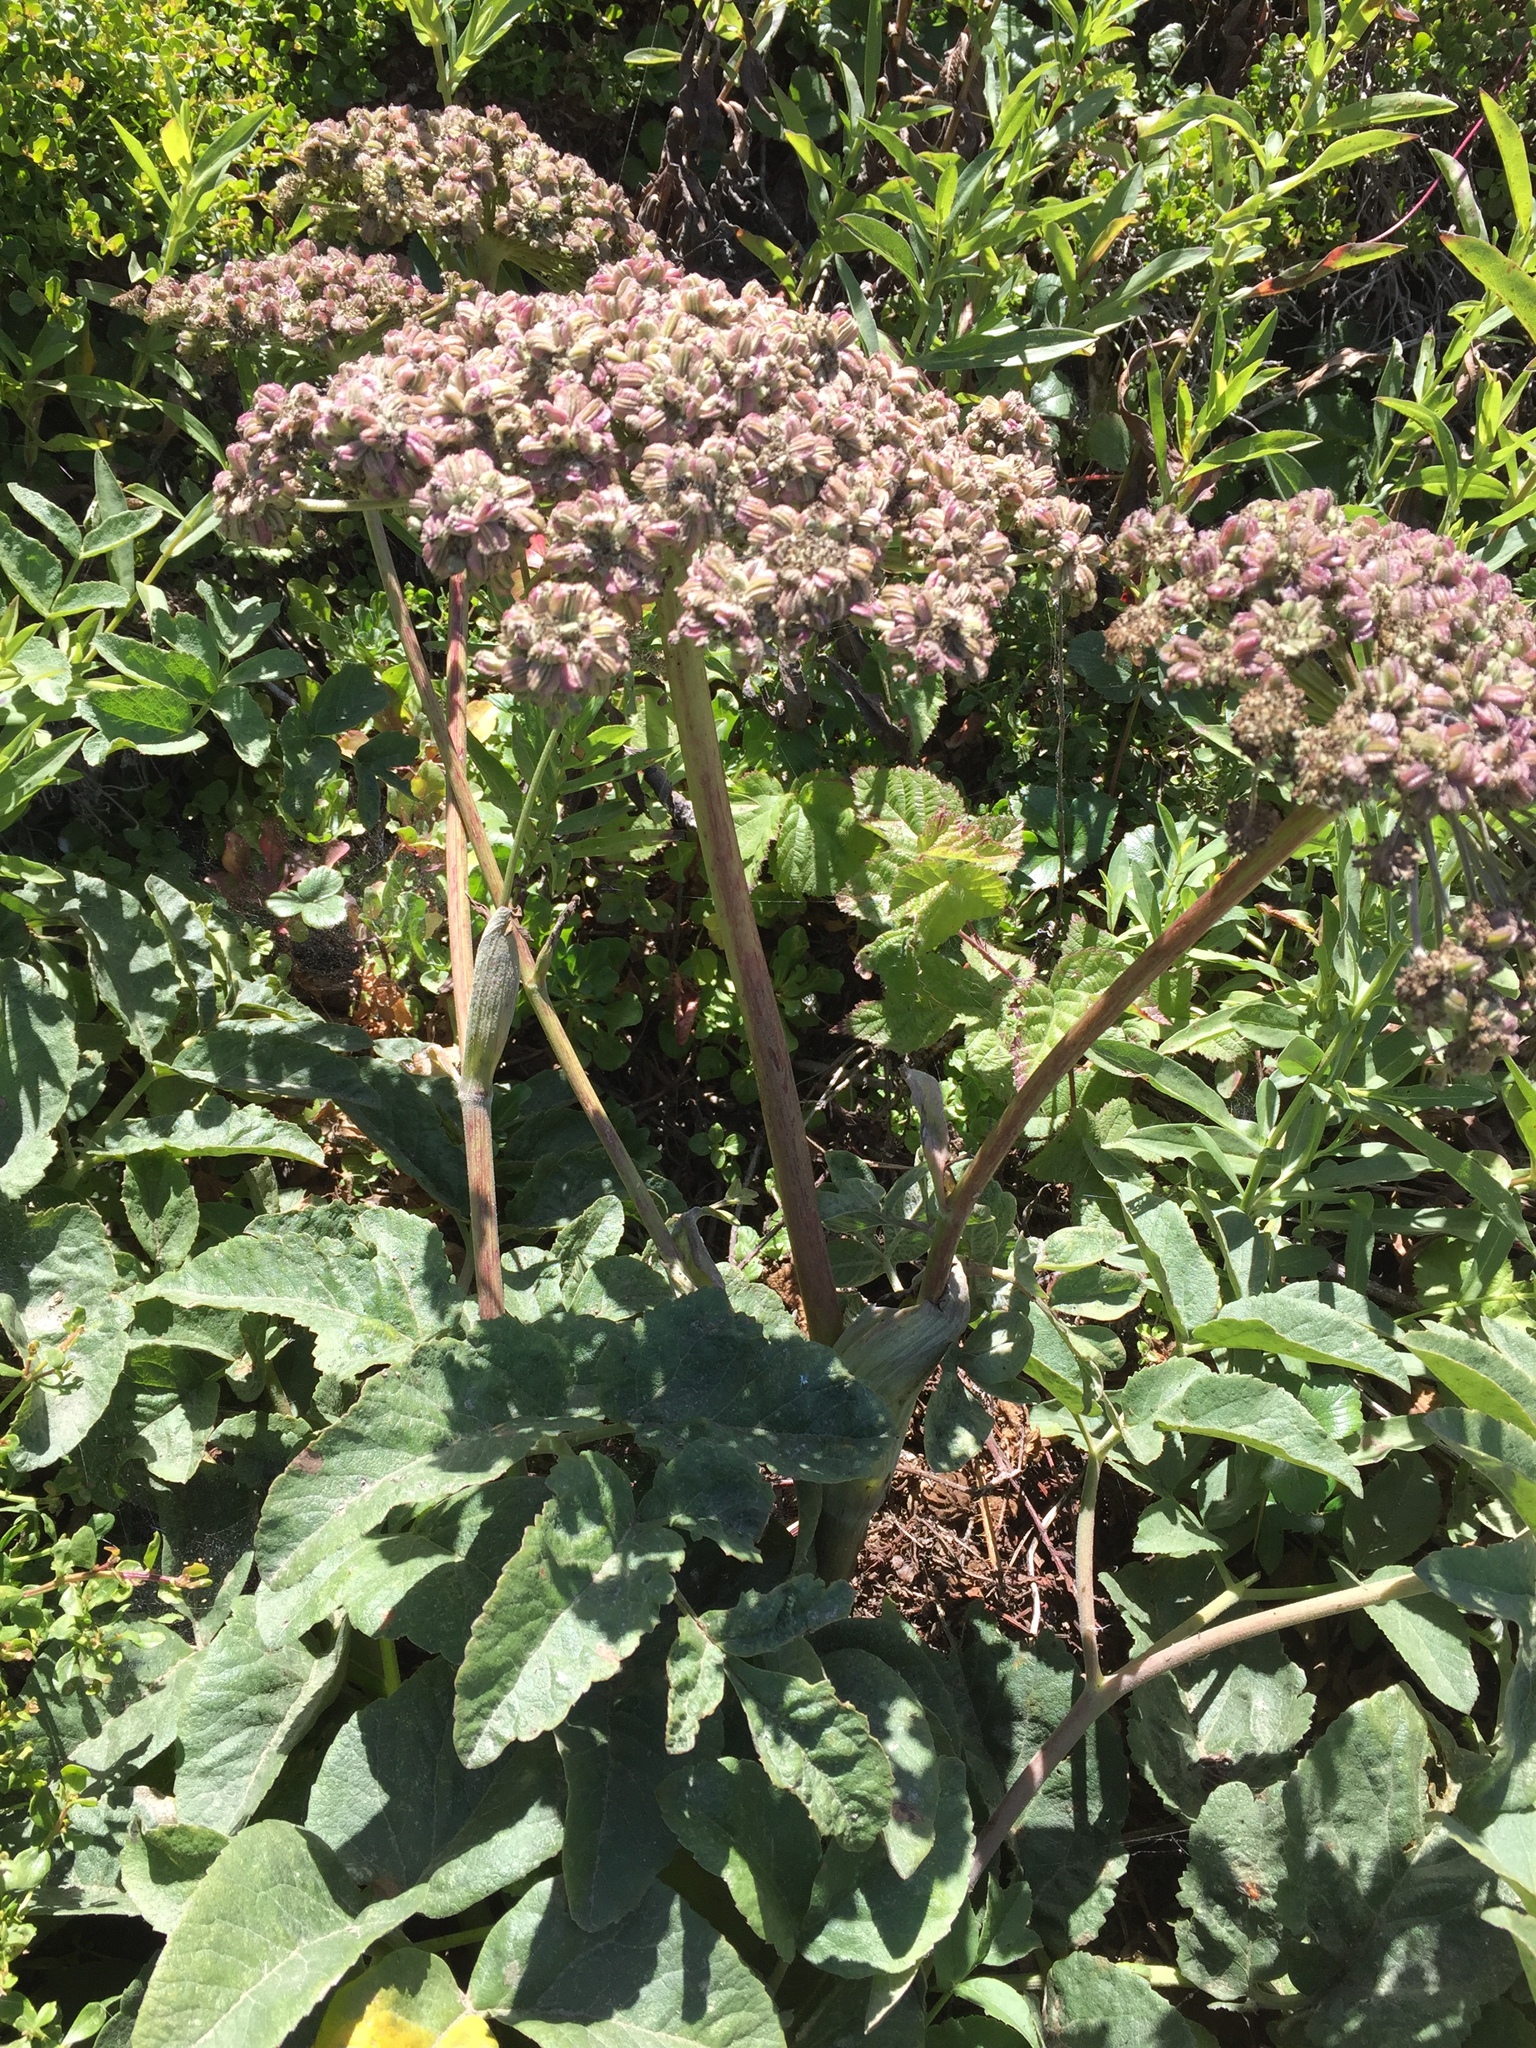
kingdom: Plantae
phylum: Tracheophyta
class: Magnoliopsida
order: Apiales
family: Apiaceae
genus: Angelica
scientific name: Angelica hendersonii
